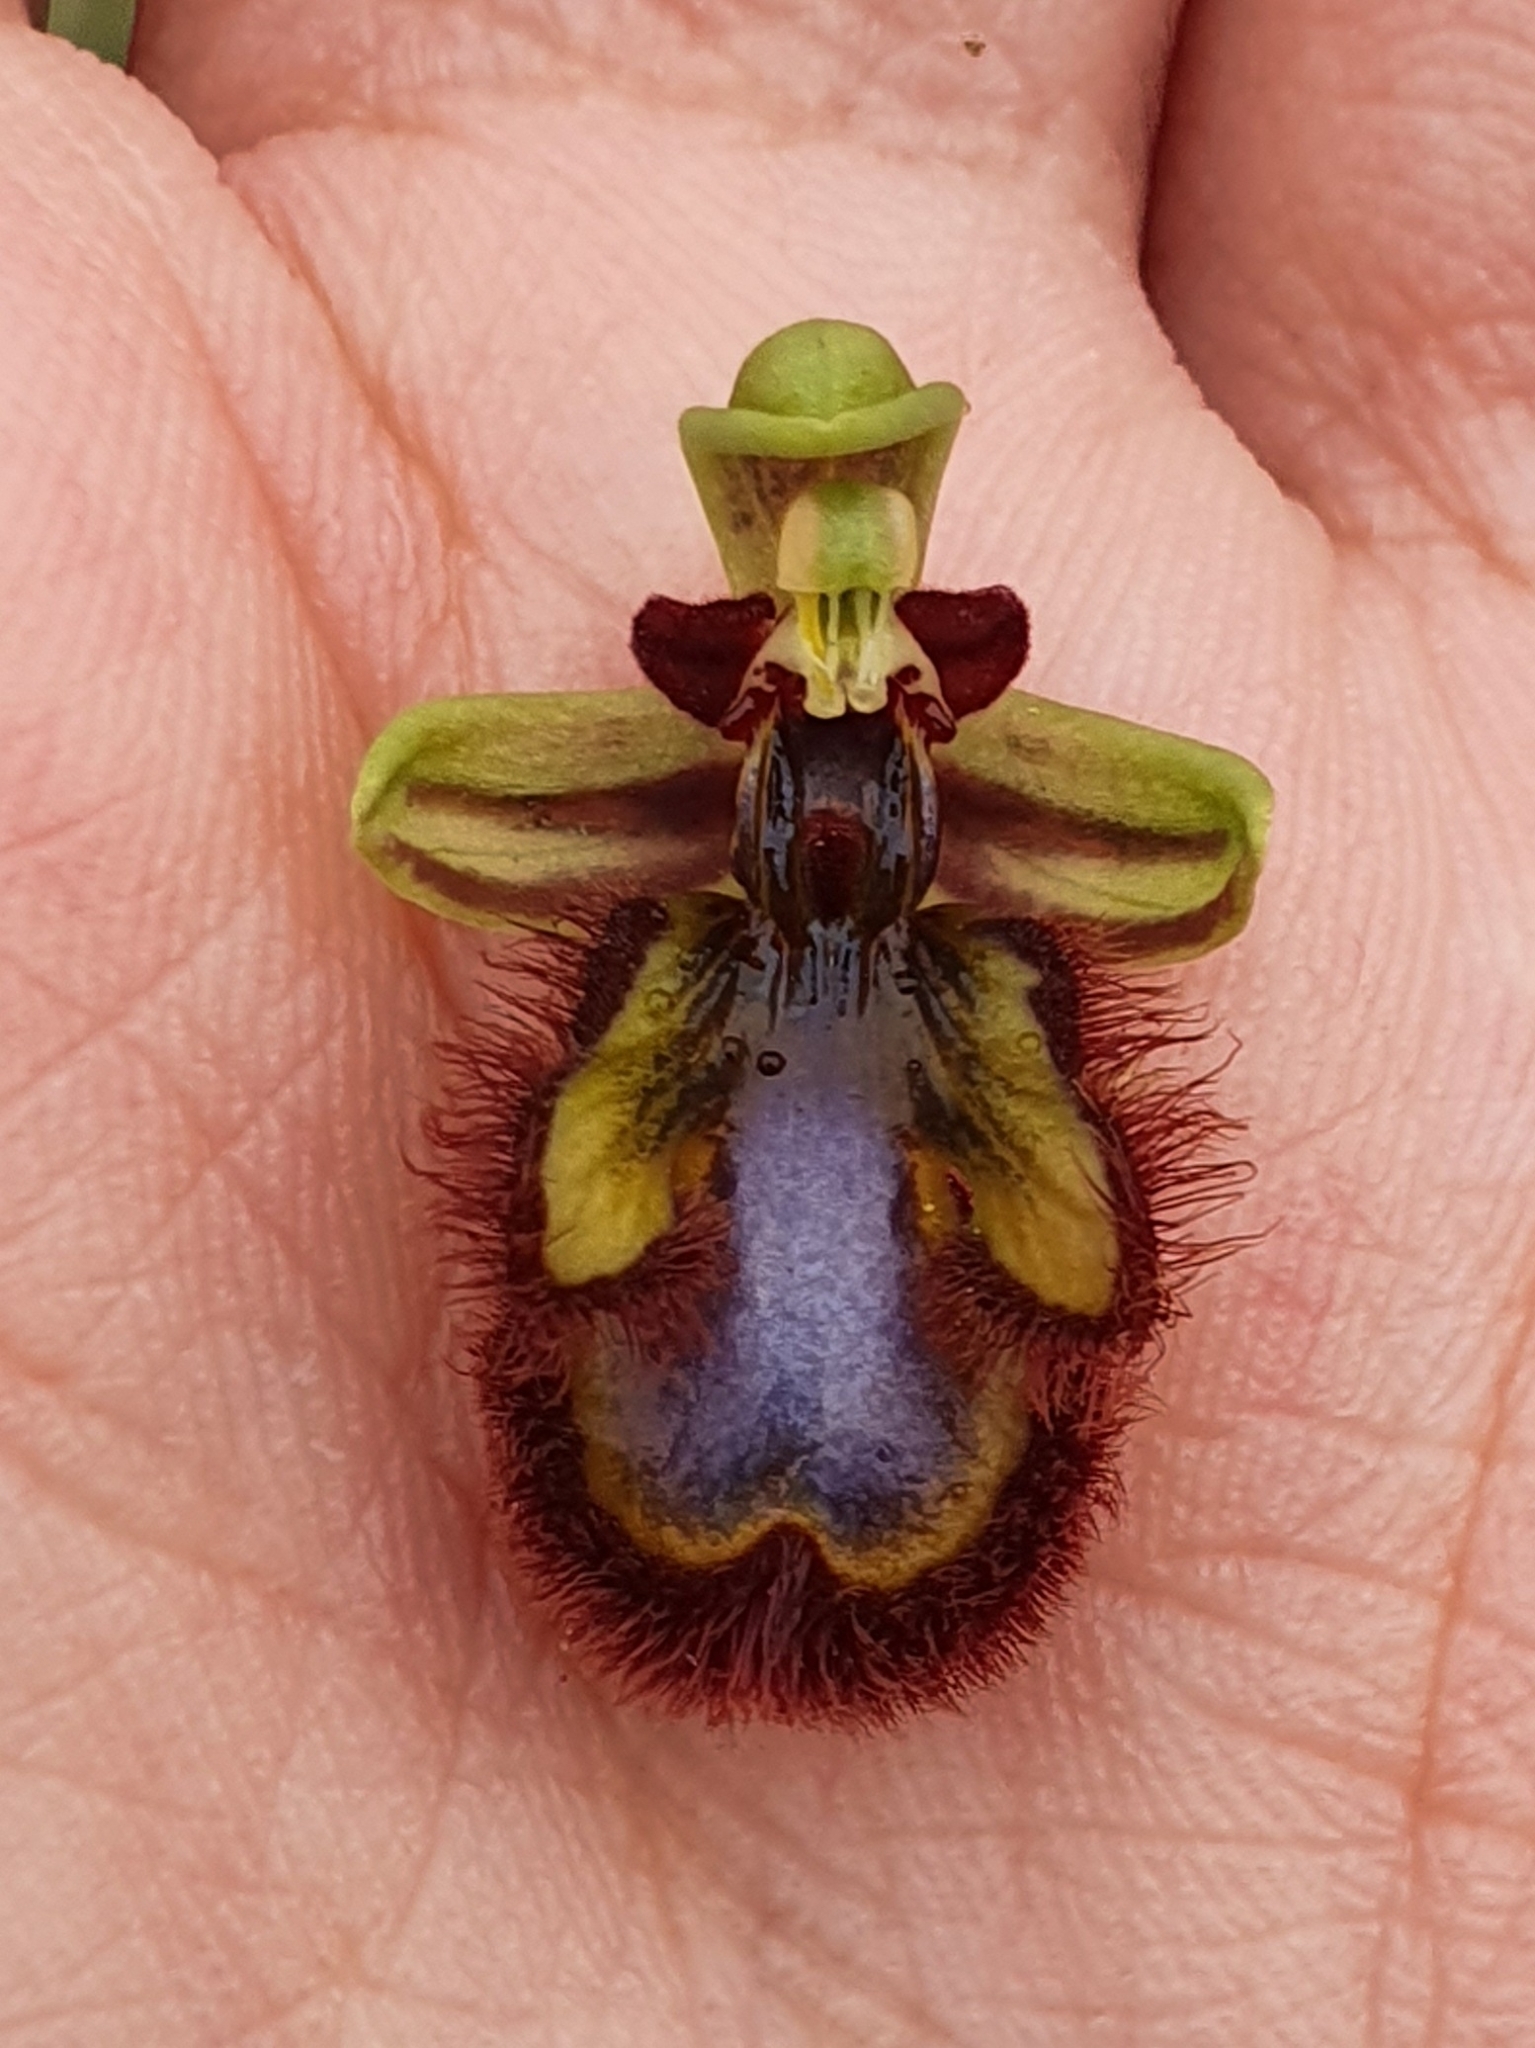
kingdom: Plantae
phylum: Tracheophyta
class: Liliopsida
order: Asparagales
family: Orchidaceae
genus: Ophrys
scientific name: Ophrys speculum
